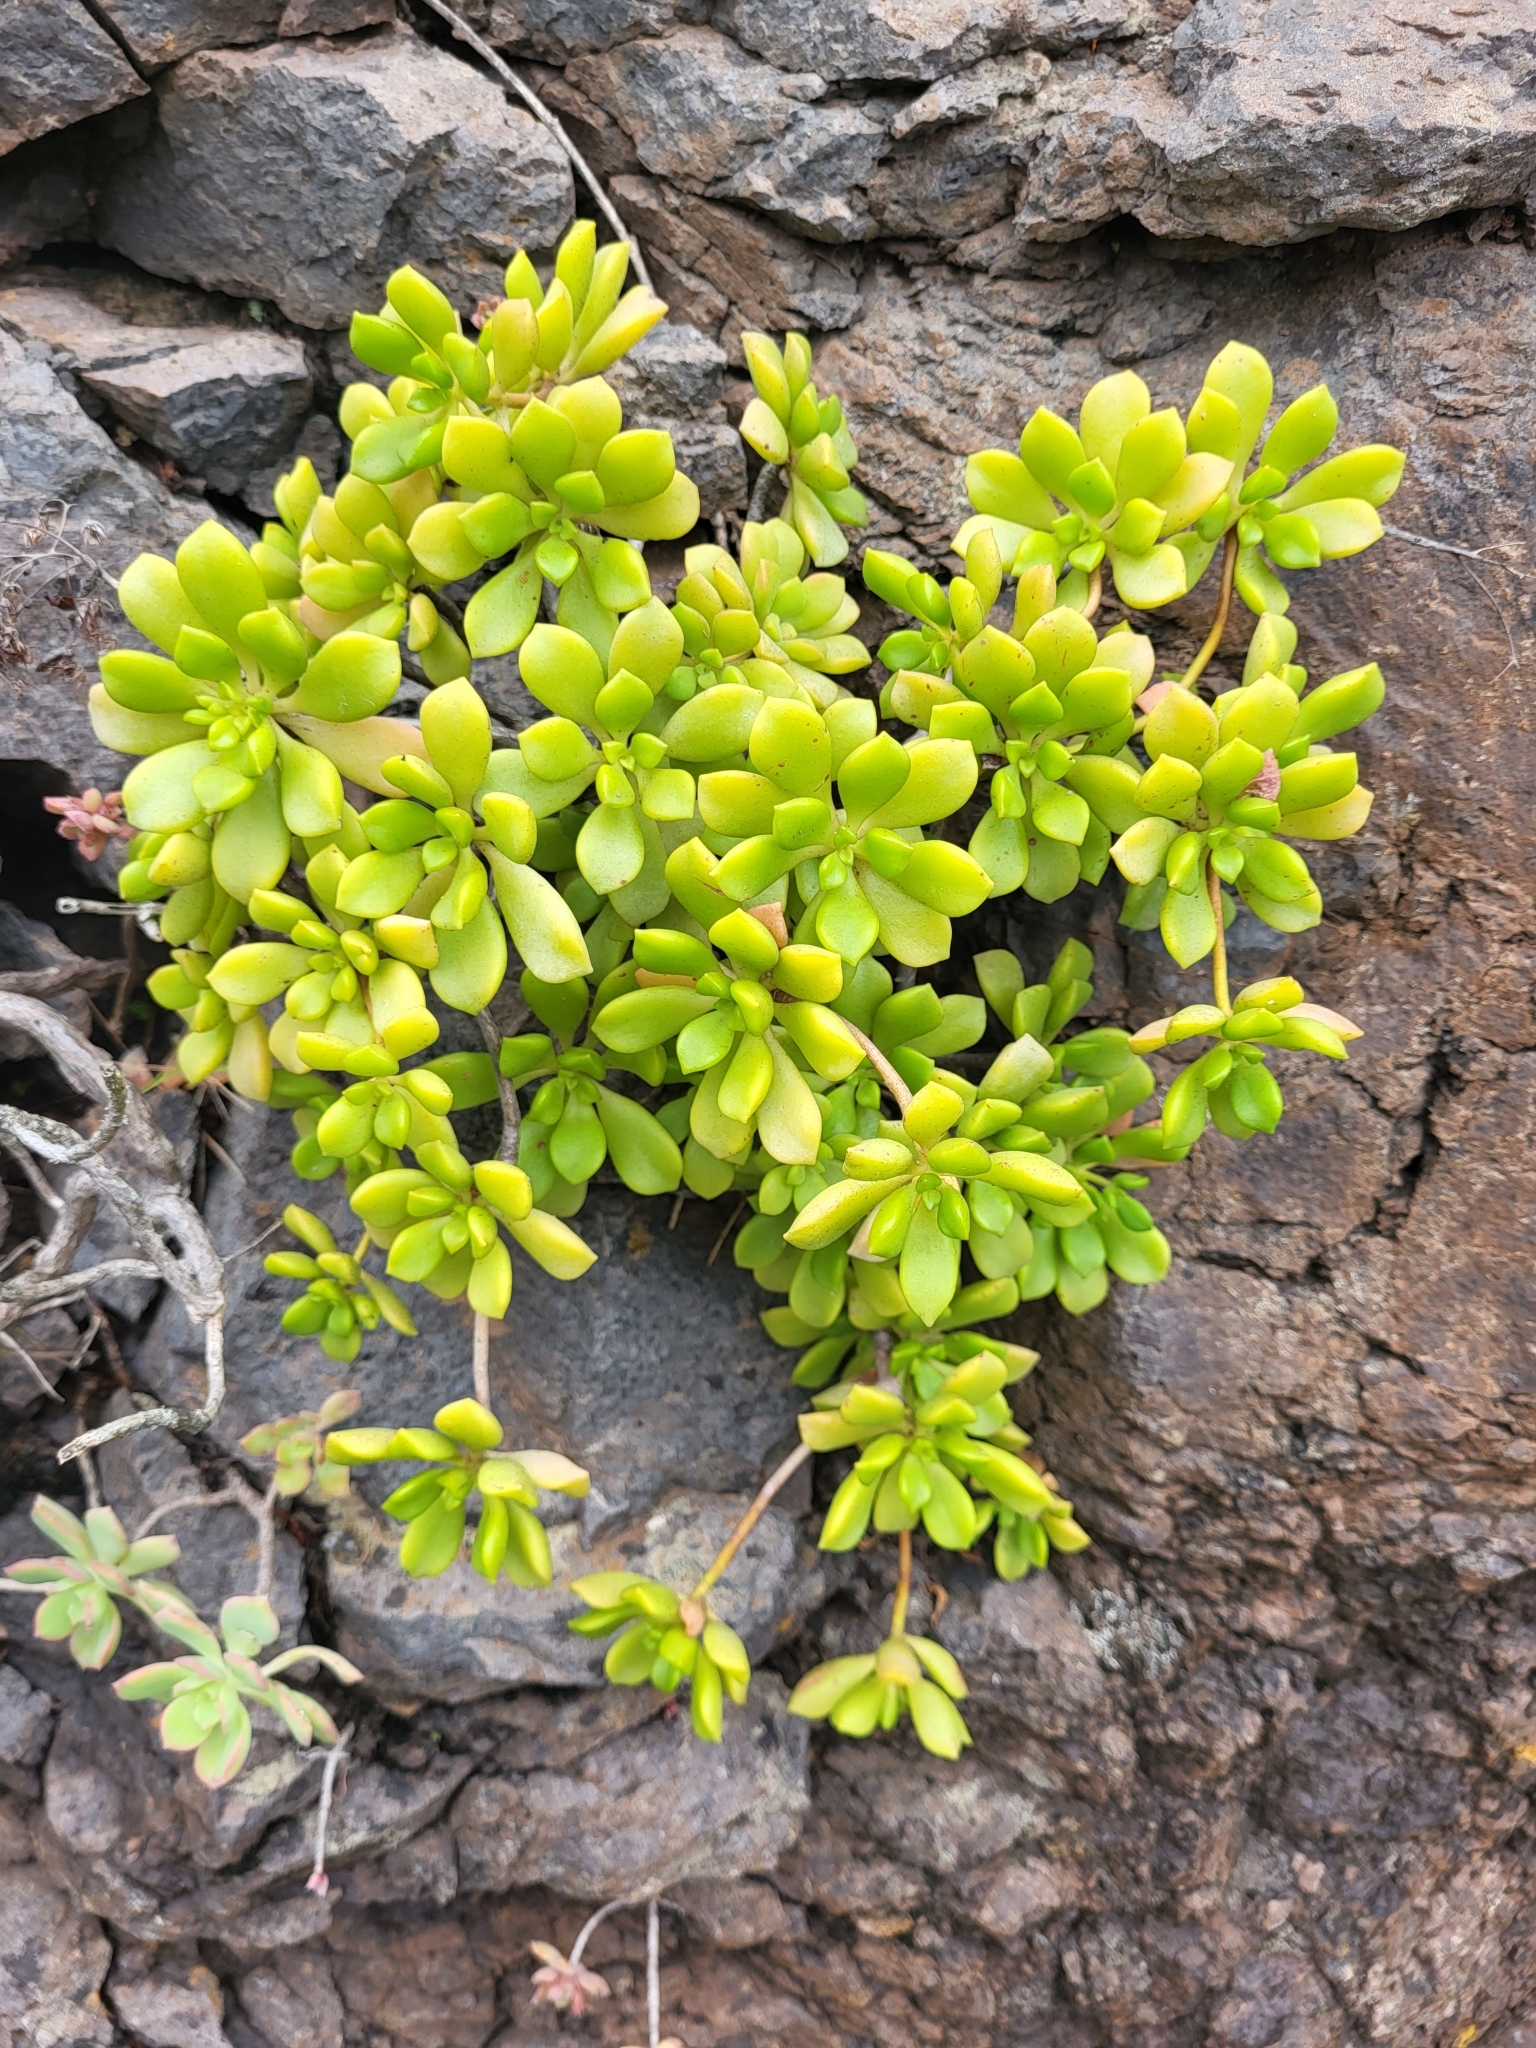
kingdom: Plantae
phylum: Tracheophyta
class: Magnoliopsida
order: Saxifragales
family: Crassulaceae
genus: Aeonium
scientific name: Aeonium lindleyi
